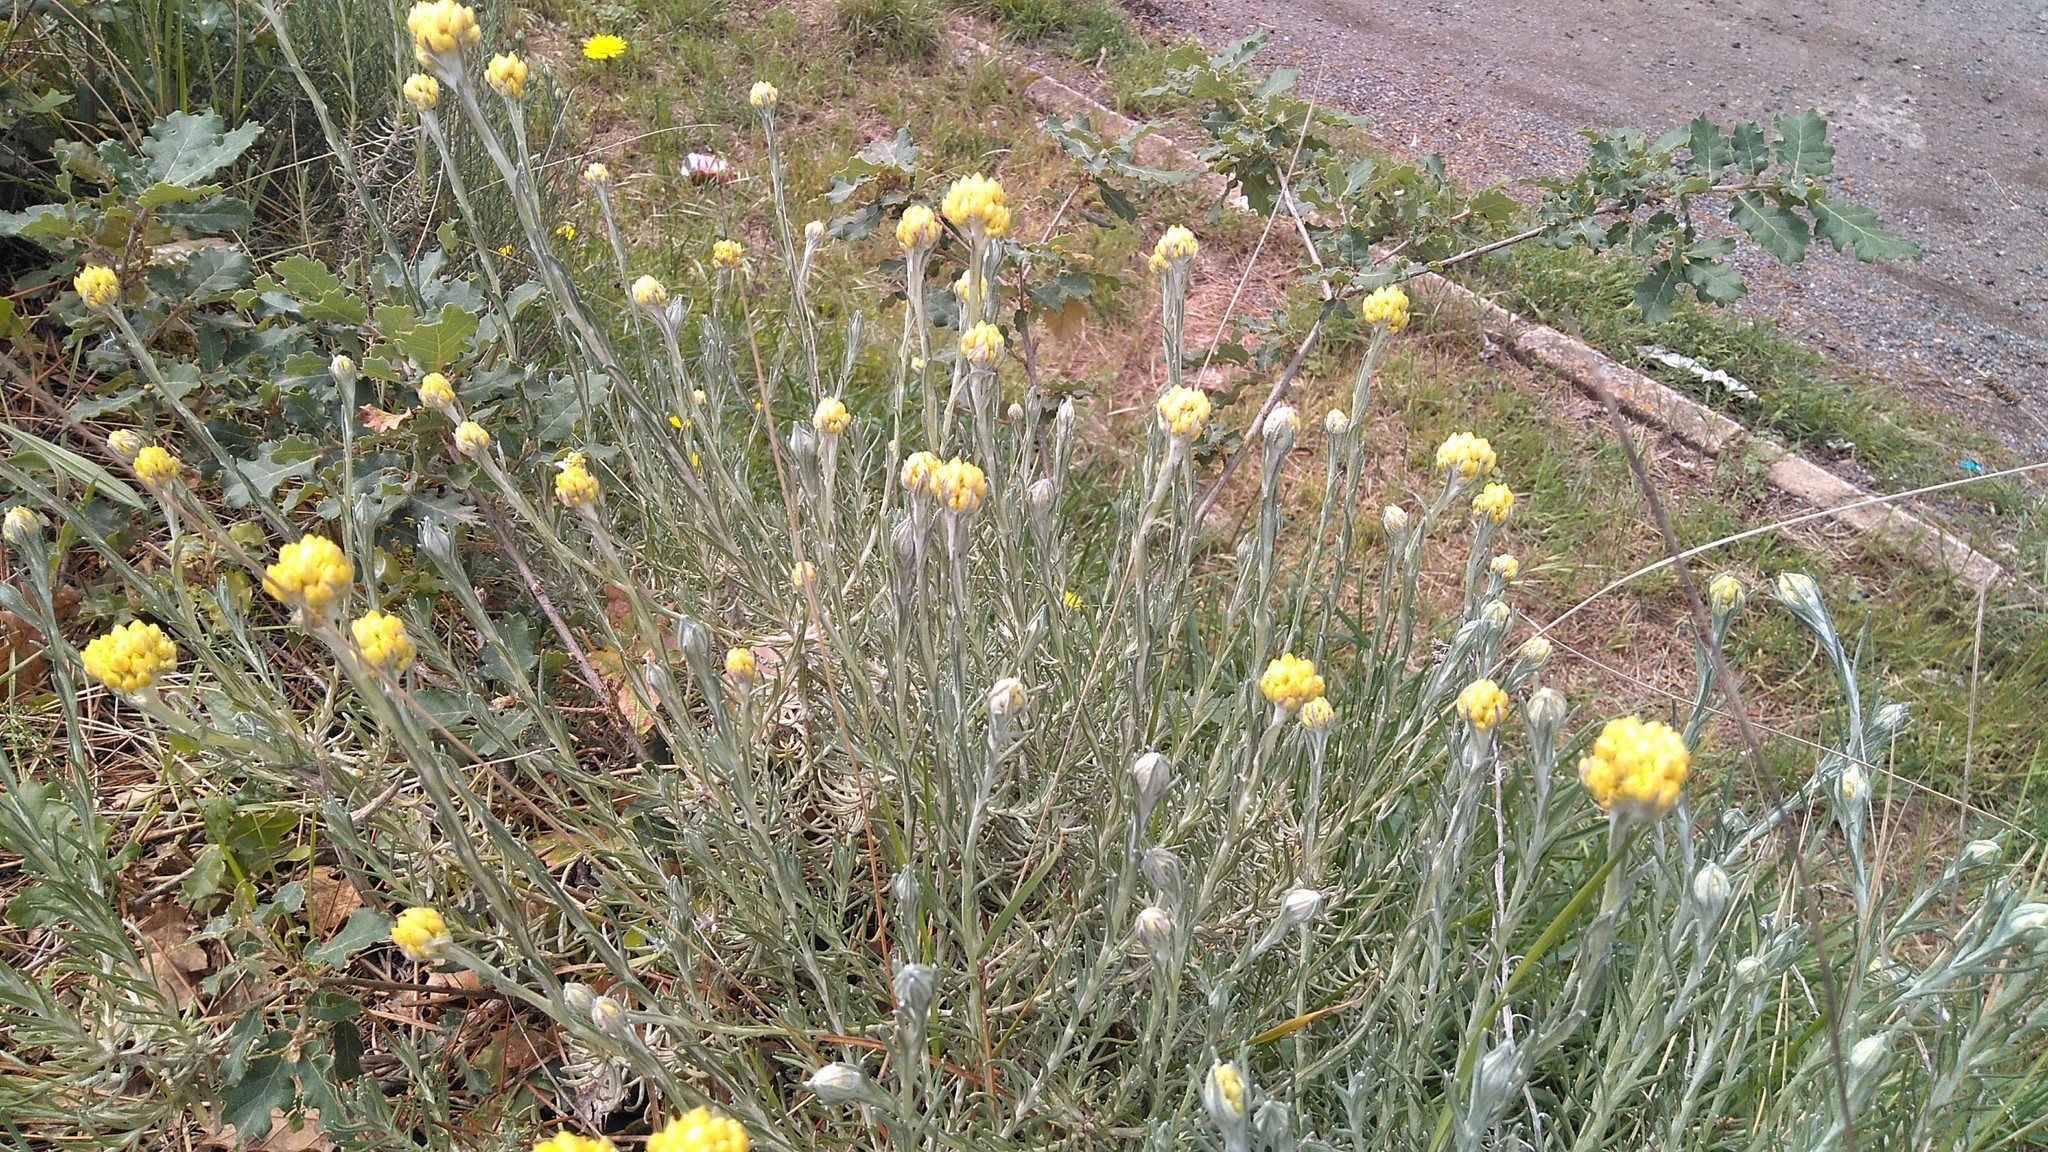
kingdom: Plantae
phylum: Tracheophyta
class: Magnoliopsida
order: Asterales
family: Asteraceae
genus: Helichrysum
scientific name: Helichrysum stoechas
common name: Goldilocks
